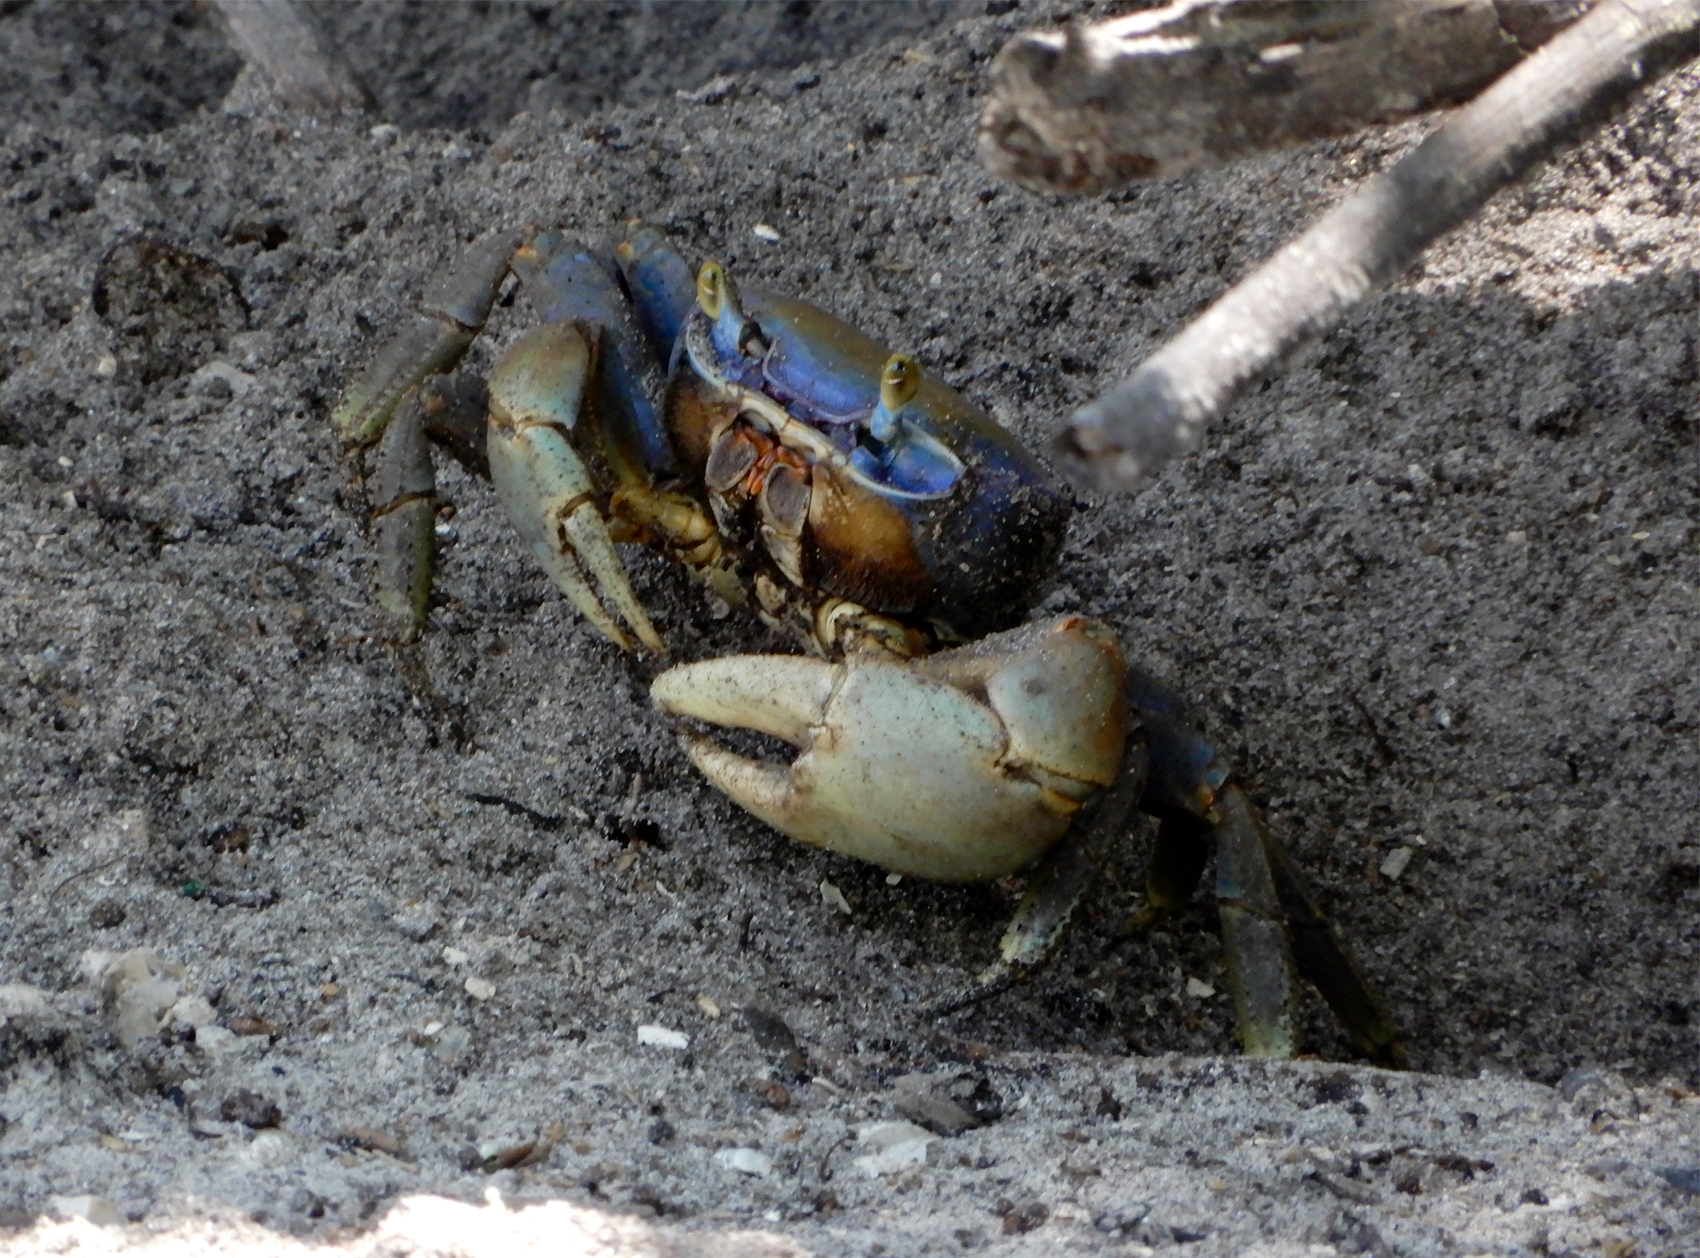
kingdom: Animalia
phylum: Arthropoda
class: Malacostraca
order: Decapoda
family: Gecarcinidae
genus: Cardisoma
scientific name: Cardisoma guanhumi
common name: Great land crab
